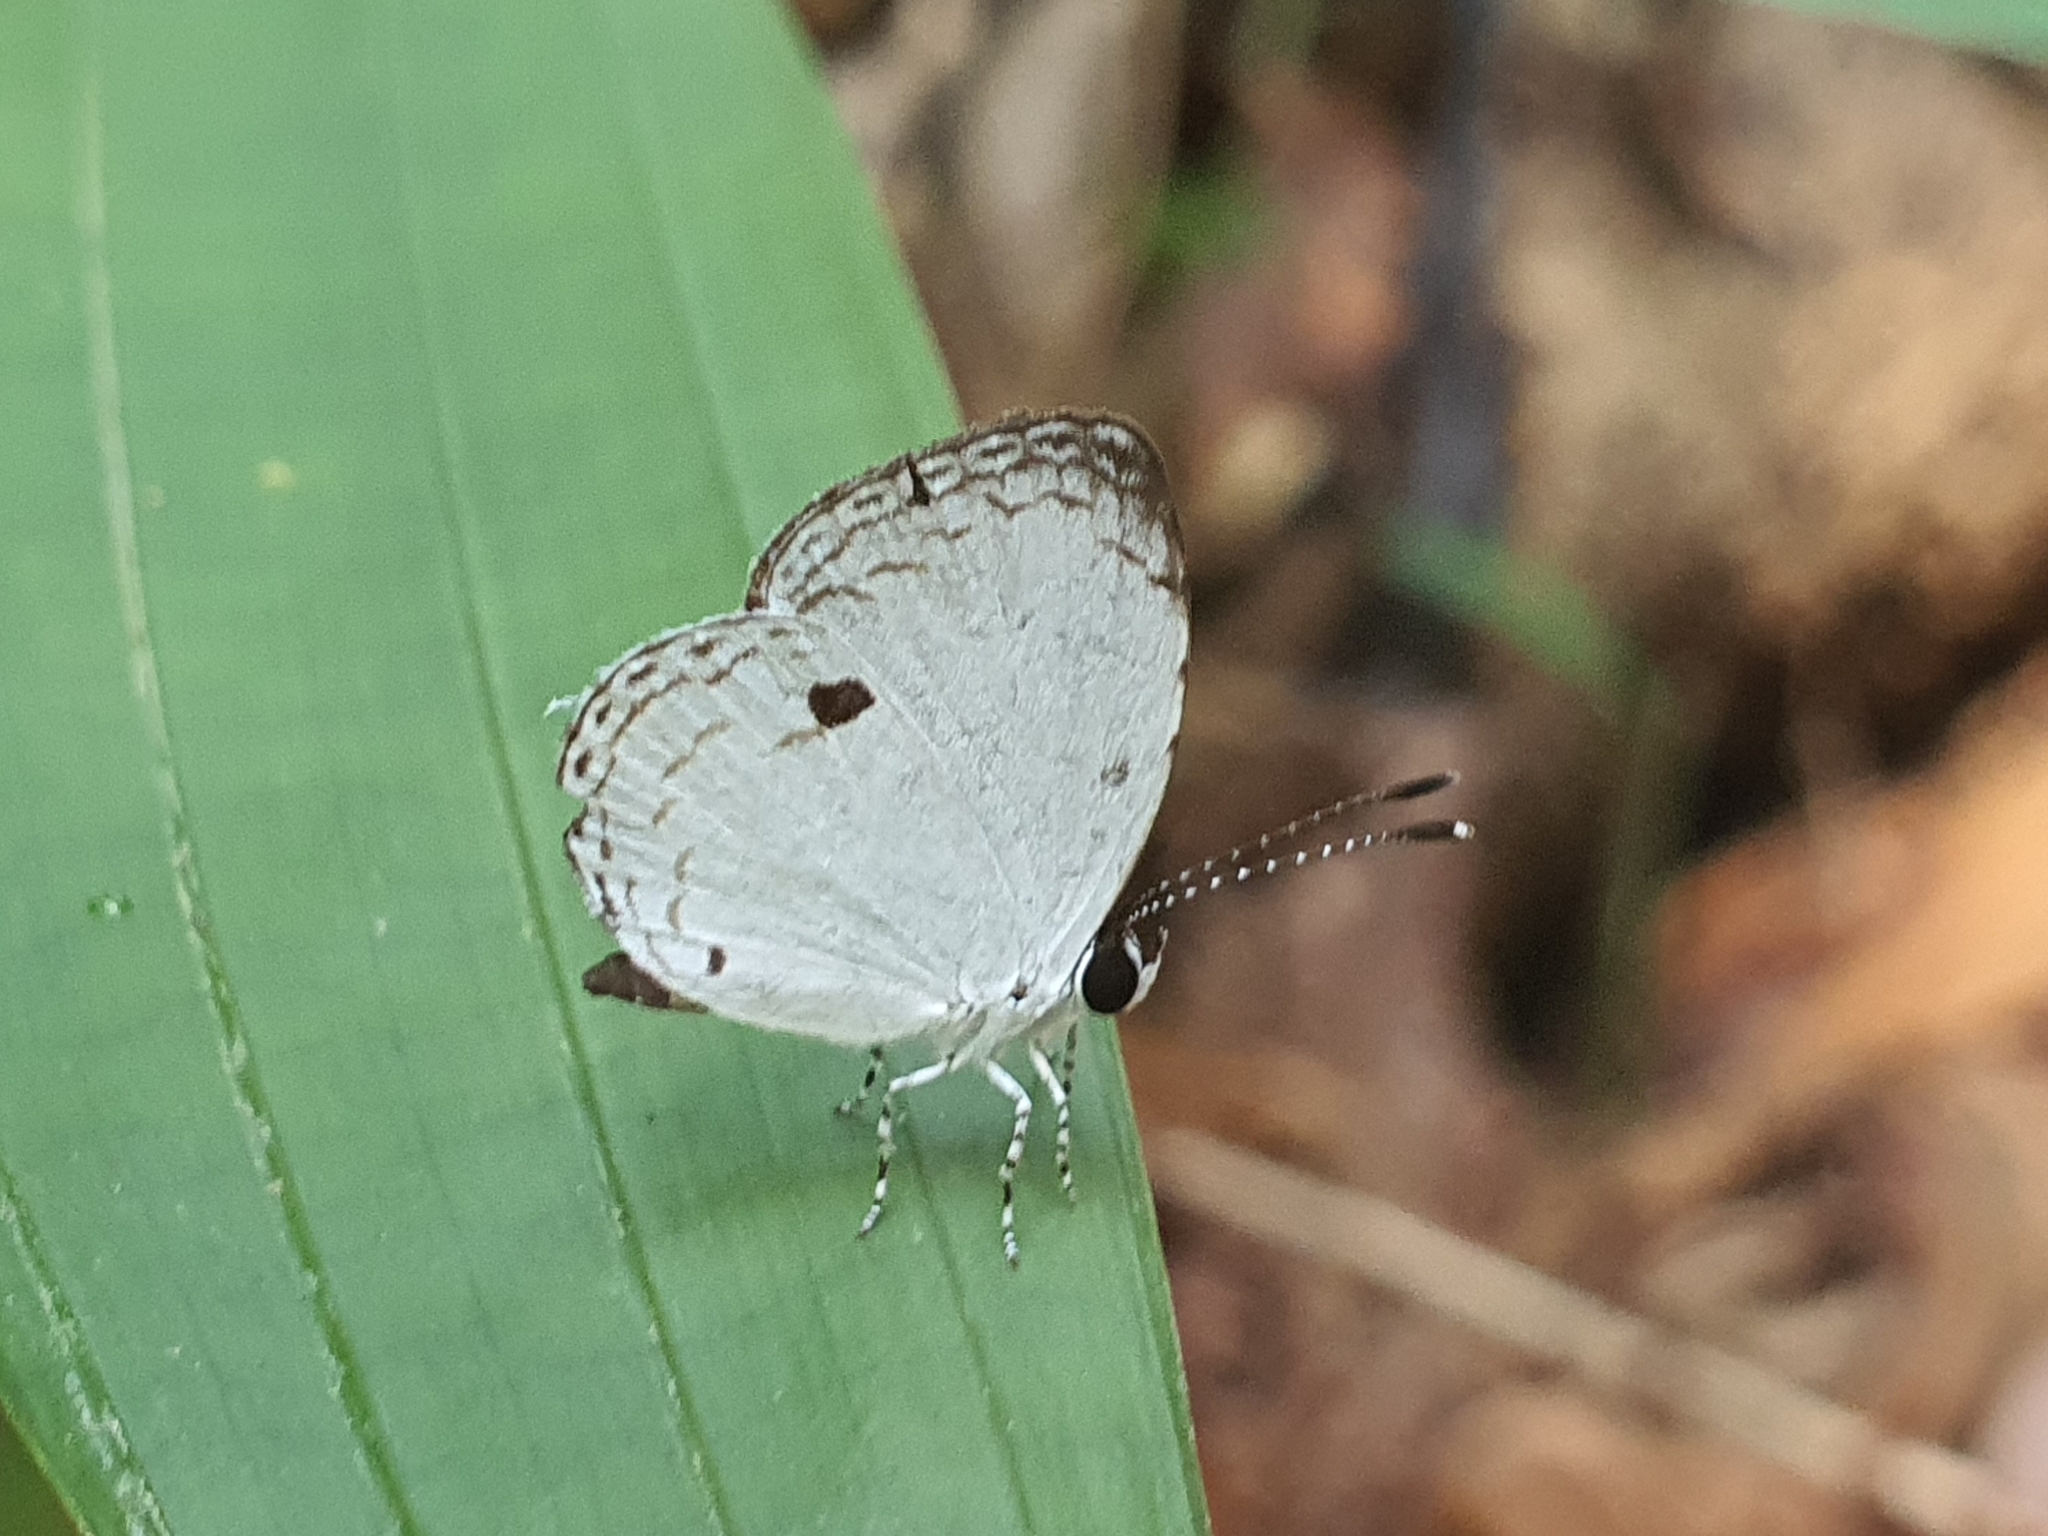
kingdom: Animalia
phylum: Arthropoda
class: Insecta
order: Lepidoptera
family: Lycaenidae
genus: Neopithecops
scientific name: Neopithecops zalmora
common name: Quaker
